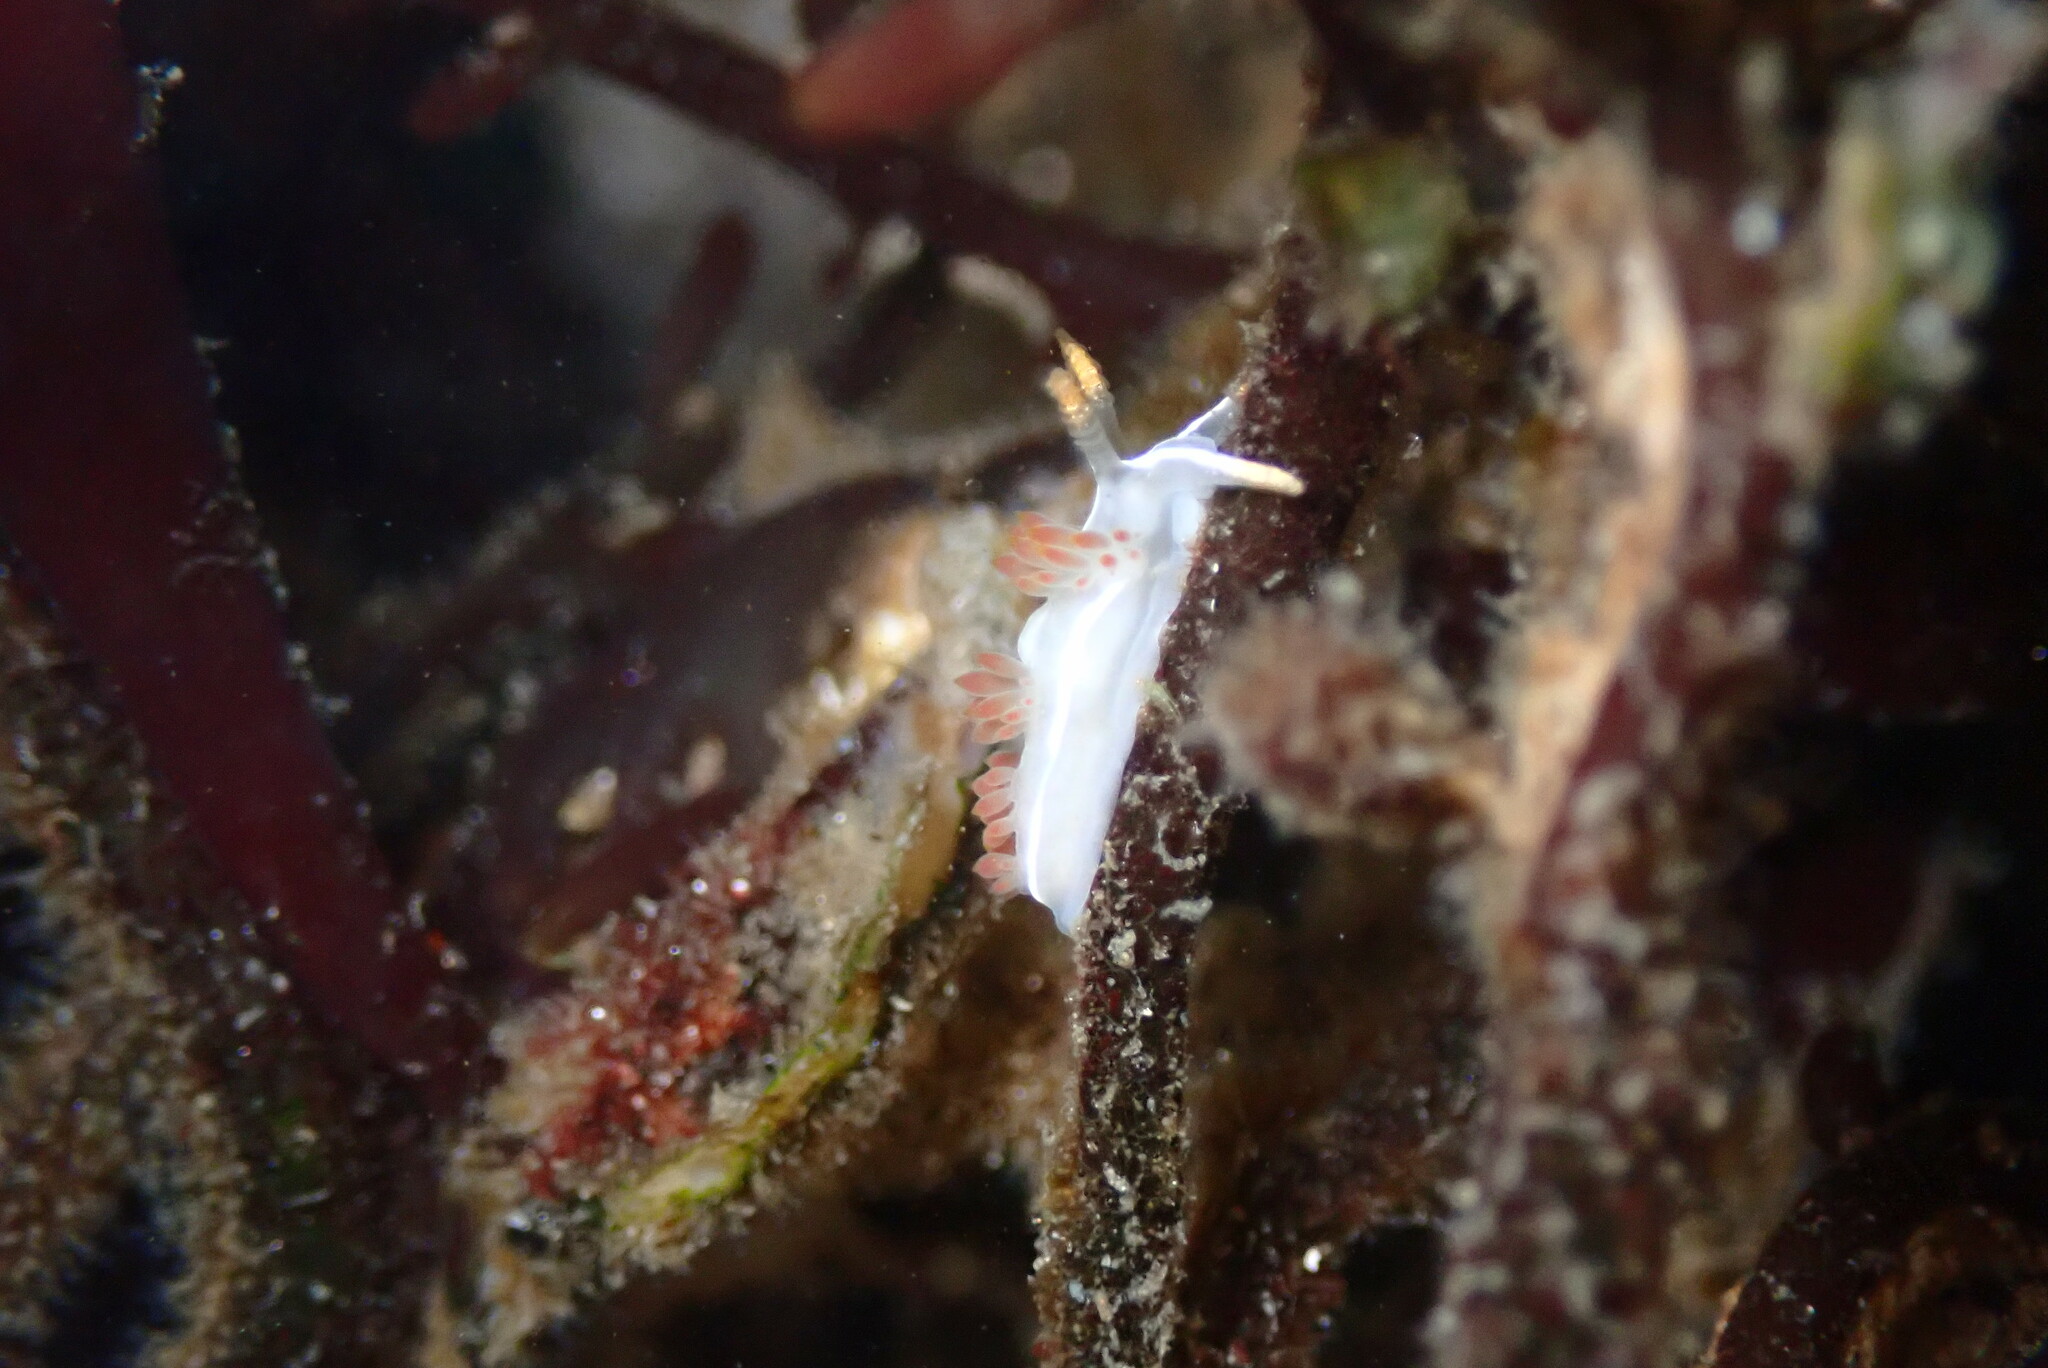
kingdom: Animalia
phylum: Mollusca
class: Gastropoda
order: Nudibranchia
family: Coryphellidae
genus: Coryphella
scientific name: Coryphella trilineata
